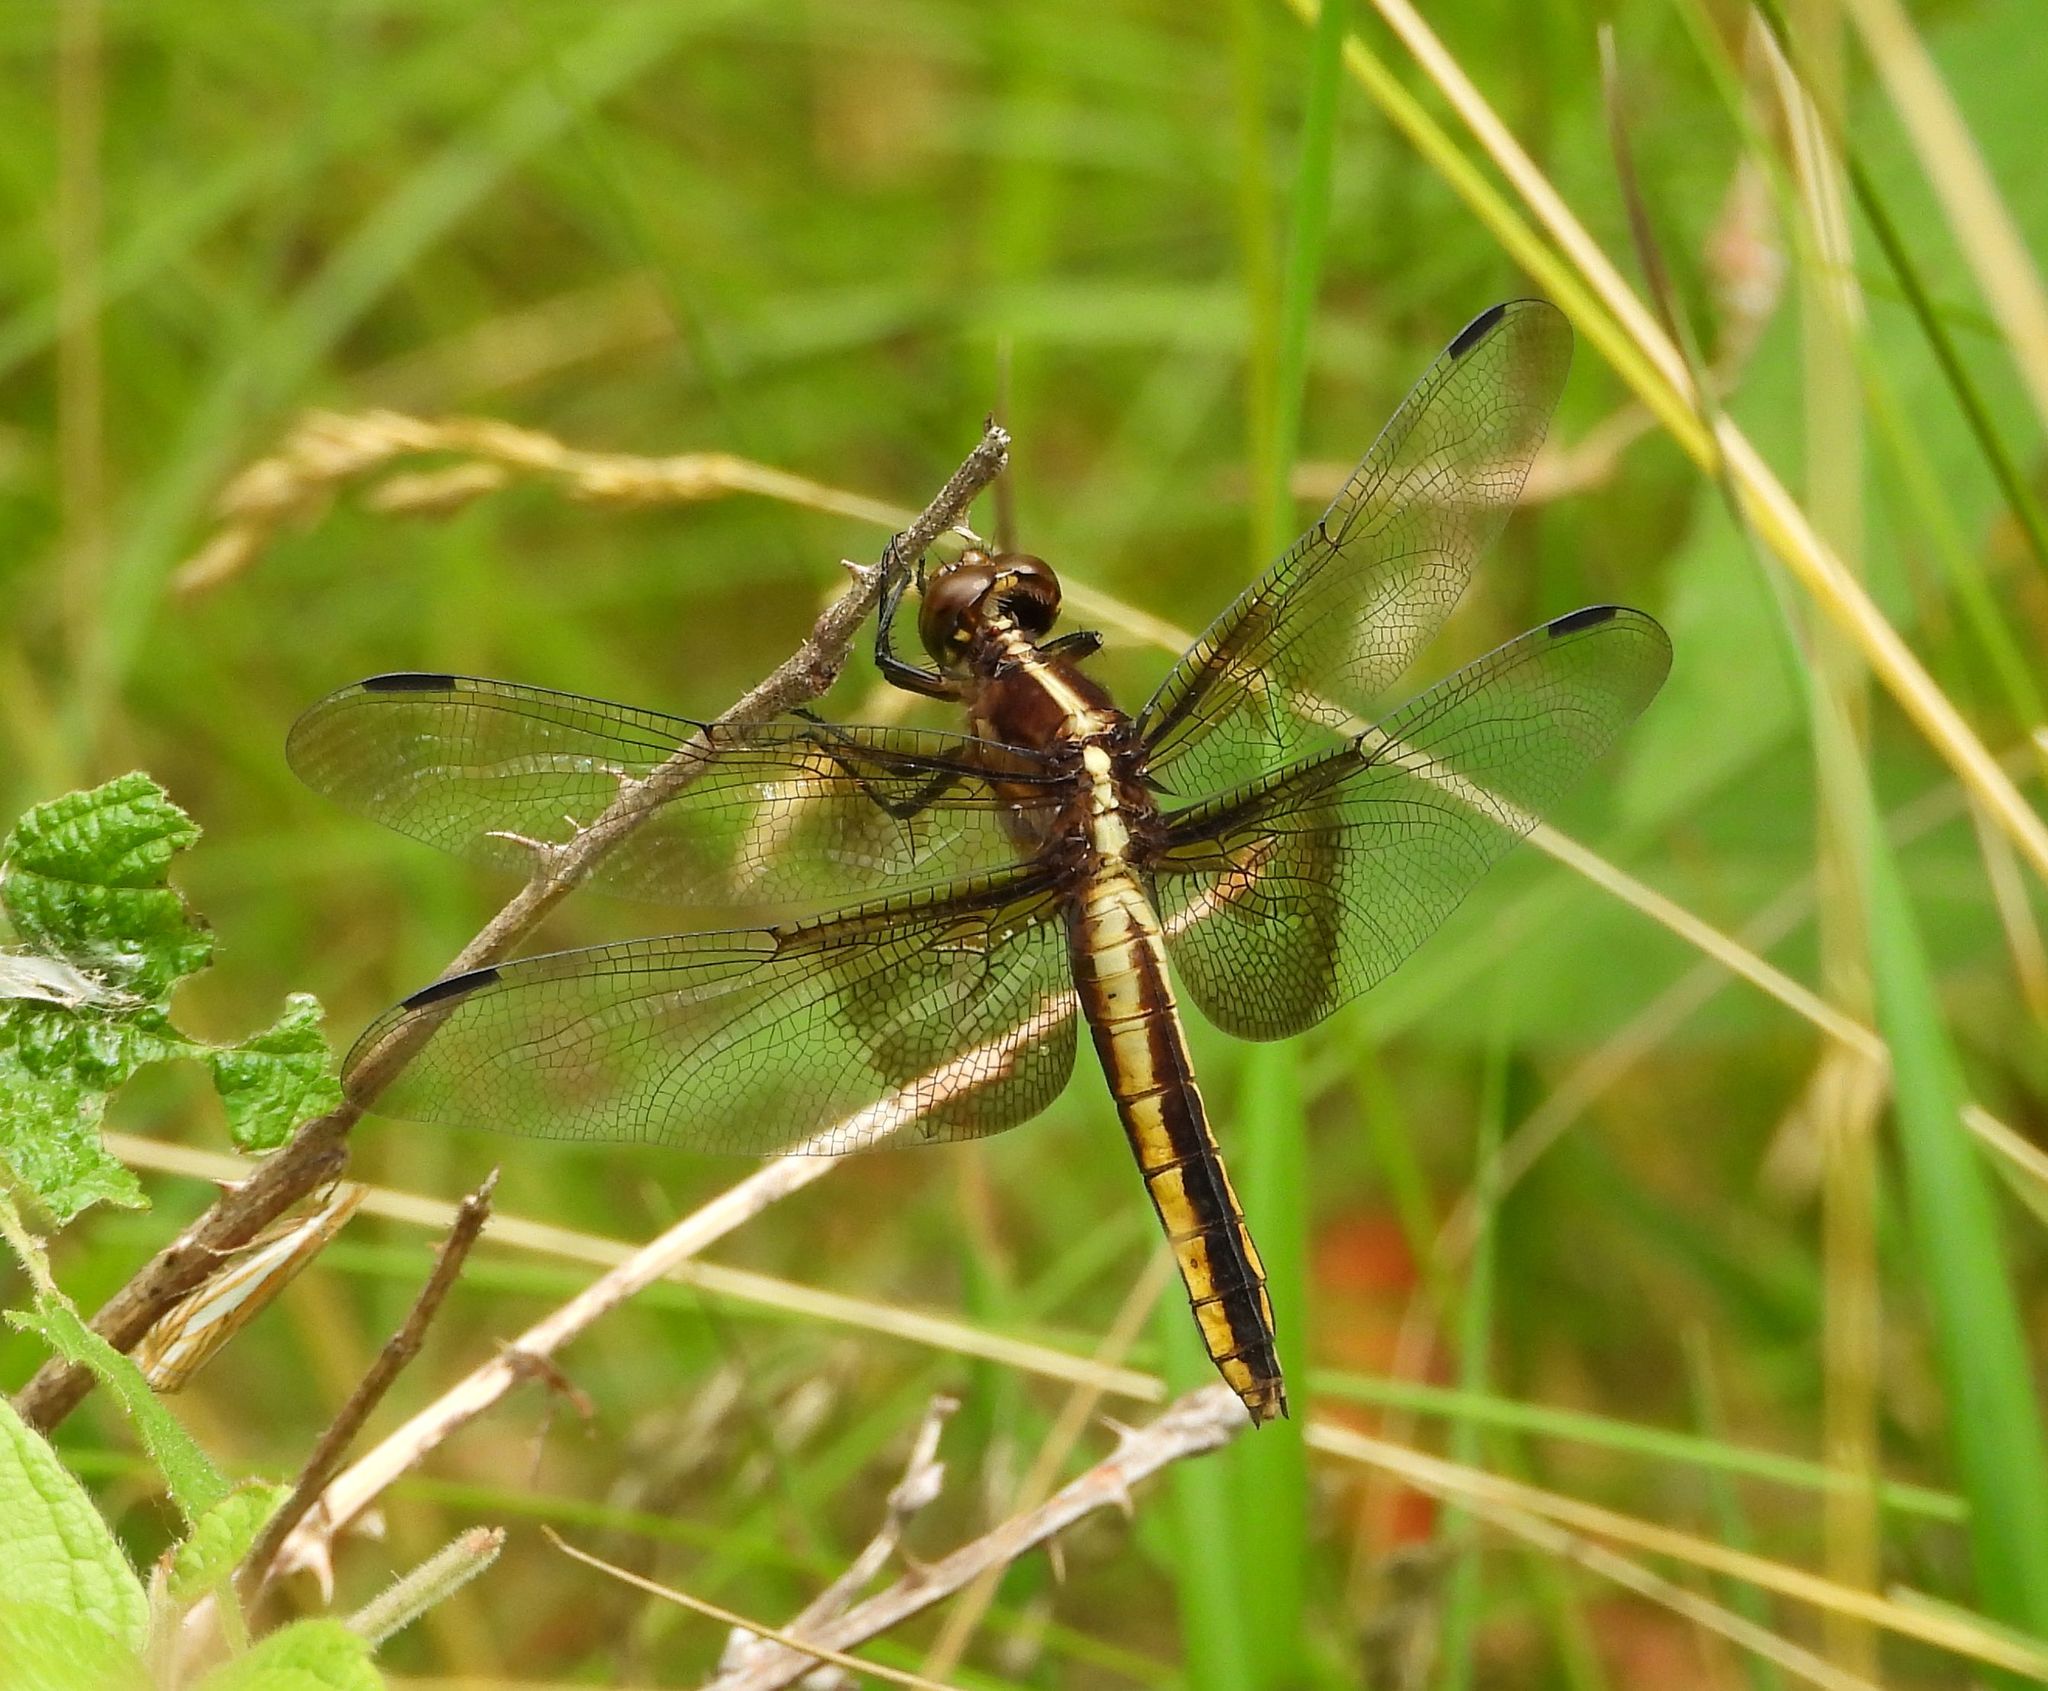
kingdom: Animalia
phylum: Arthropoda
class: Insecta
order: Odonata
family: Libellulidae
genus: Libellula
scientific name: Libellula luctuosa
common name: Widow skimmer
